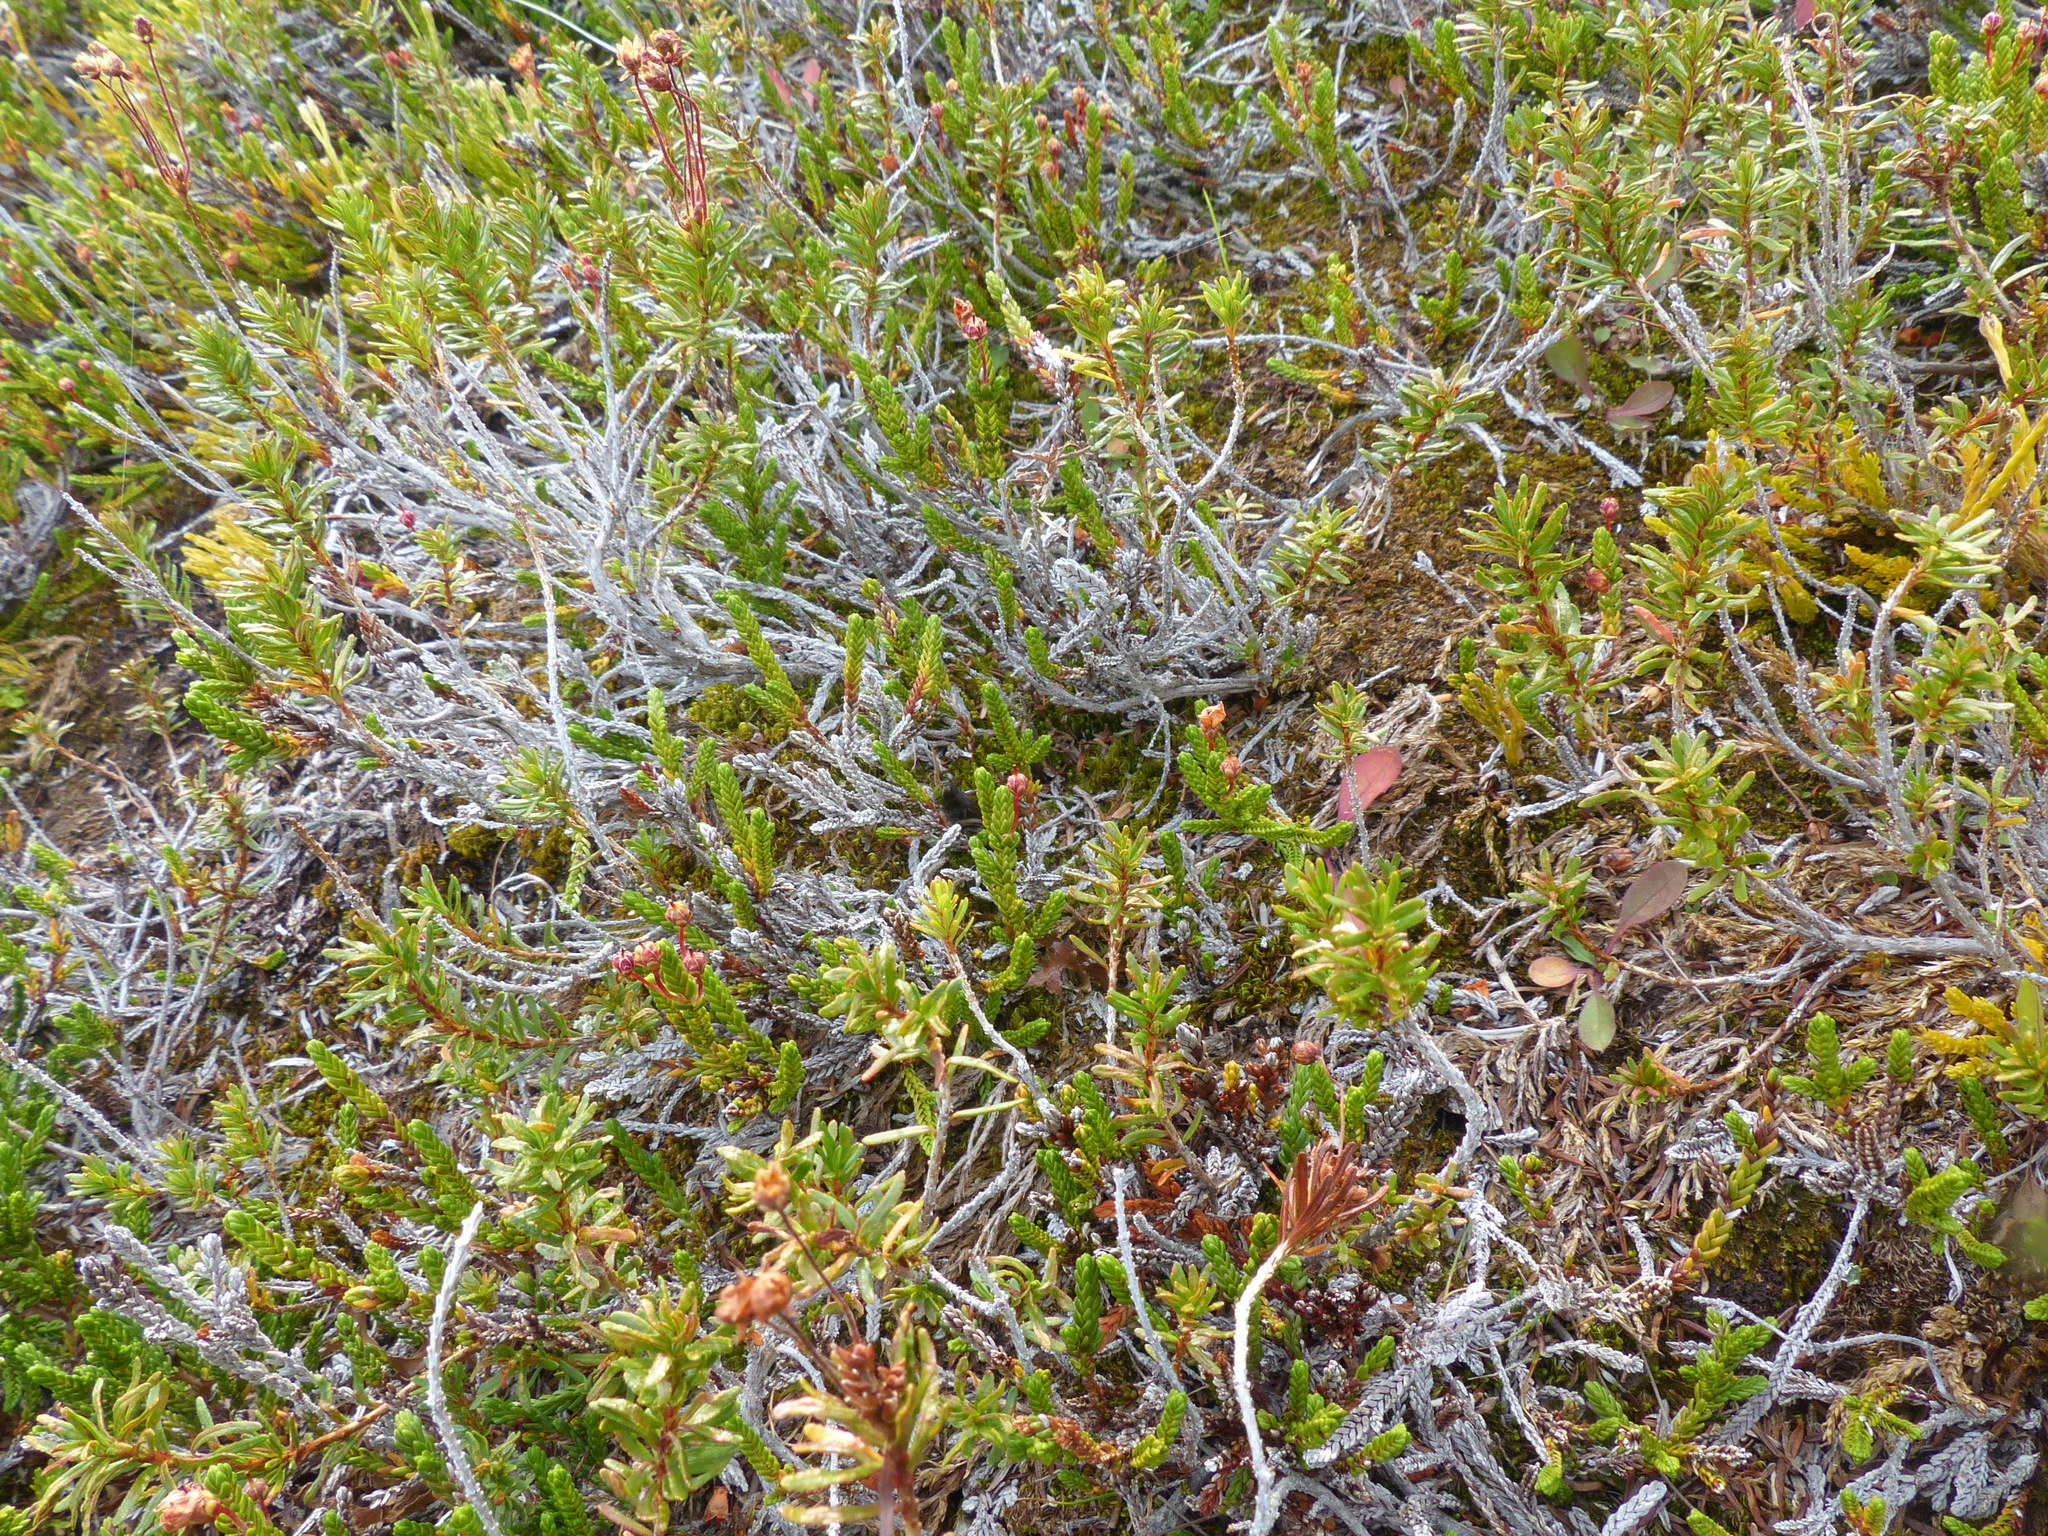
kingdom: Plantae
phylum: Tracheophyta
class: Magnoliopsida
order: Ericales
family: Ericaceae
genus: Phyllodoce
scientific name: Phyllodoce empetriformis
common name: Pink mountain heather
